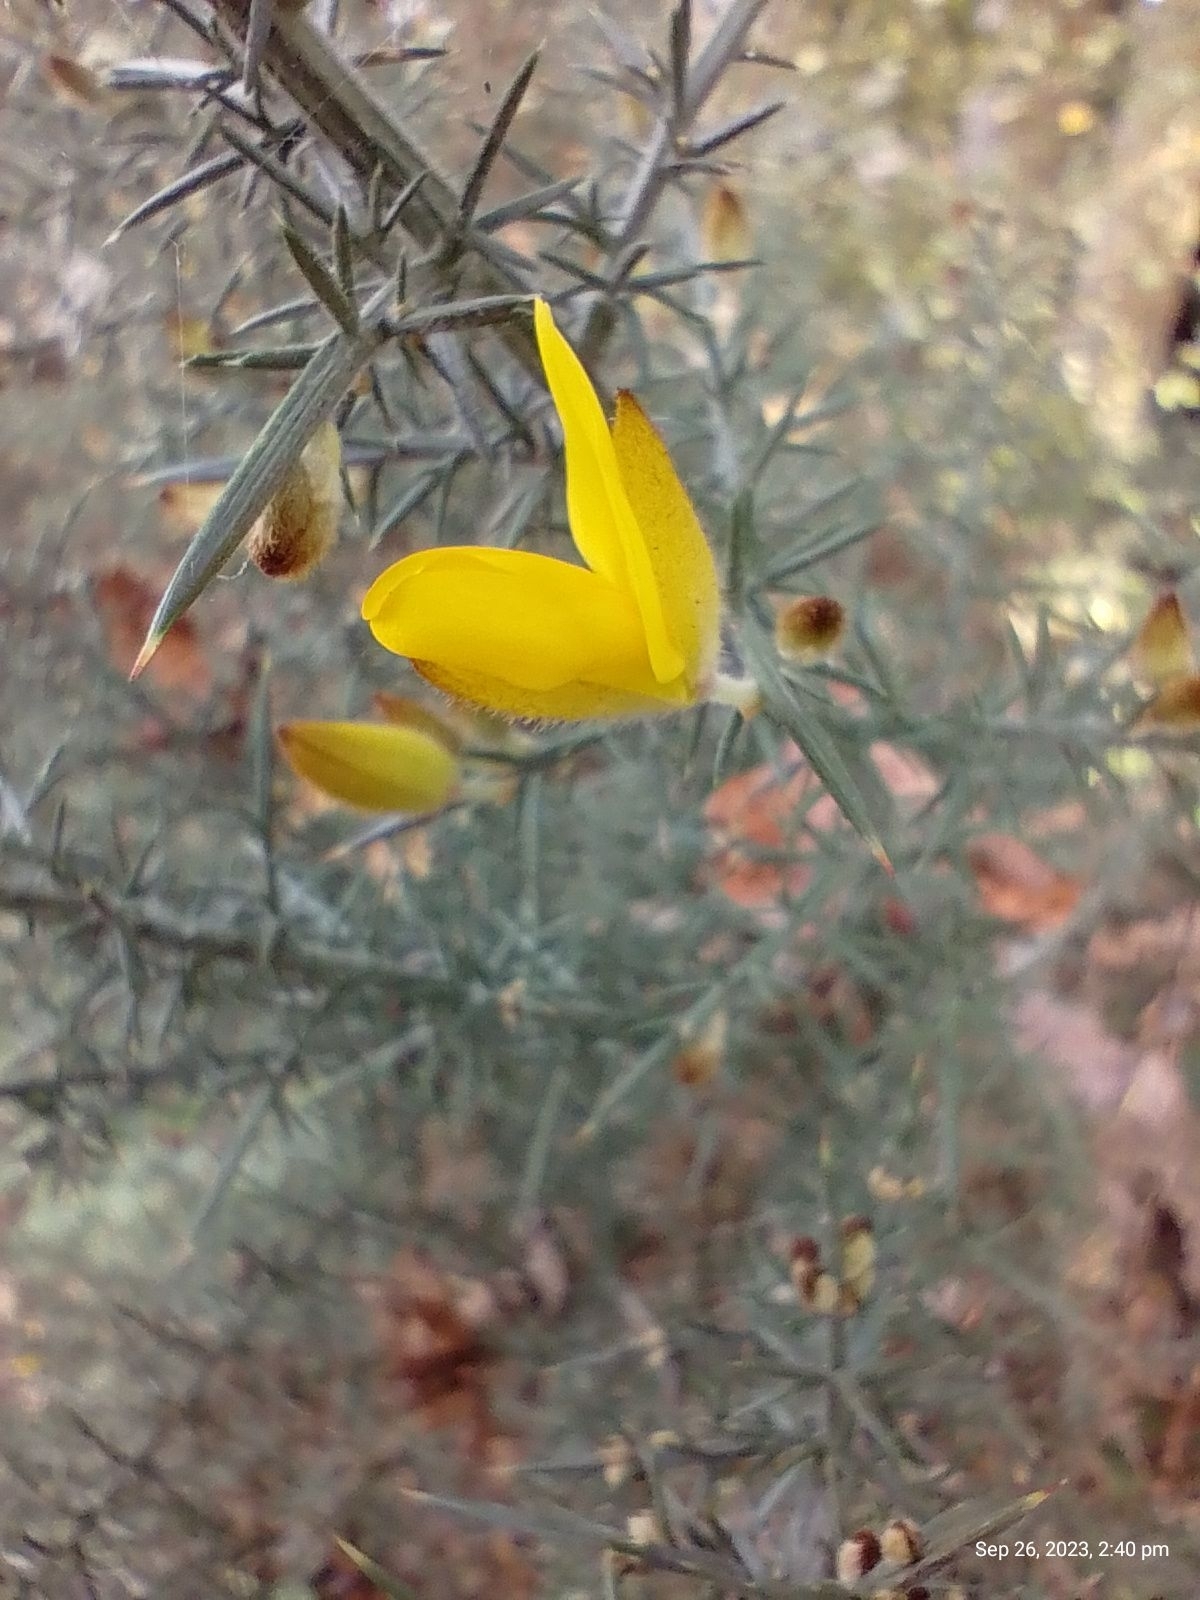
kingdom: Plantae
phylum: Tracheophyta
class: Magnoliopsida
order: Fabales
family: Fabaceae
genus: Ulex
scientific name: Ulex europaeus
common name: Common gorse
